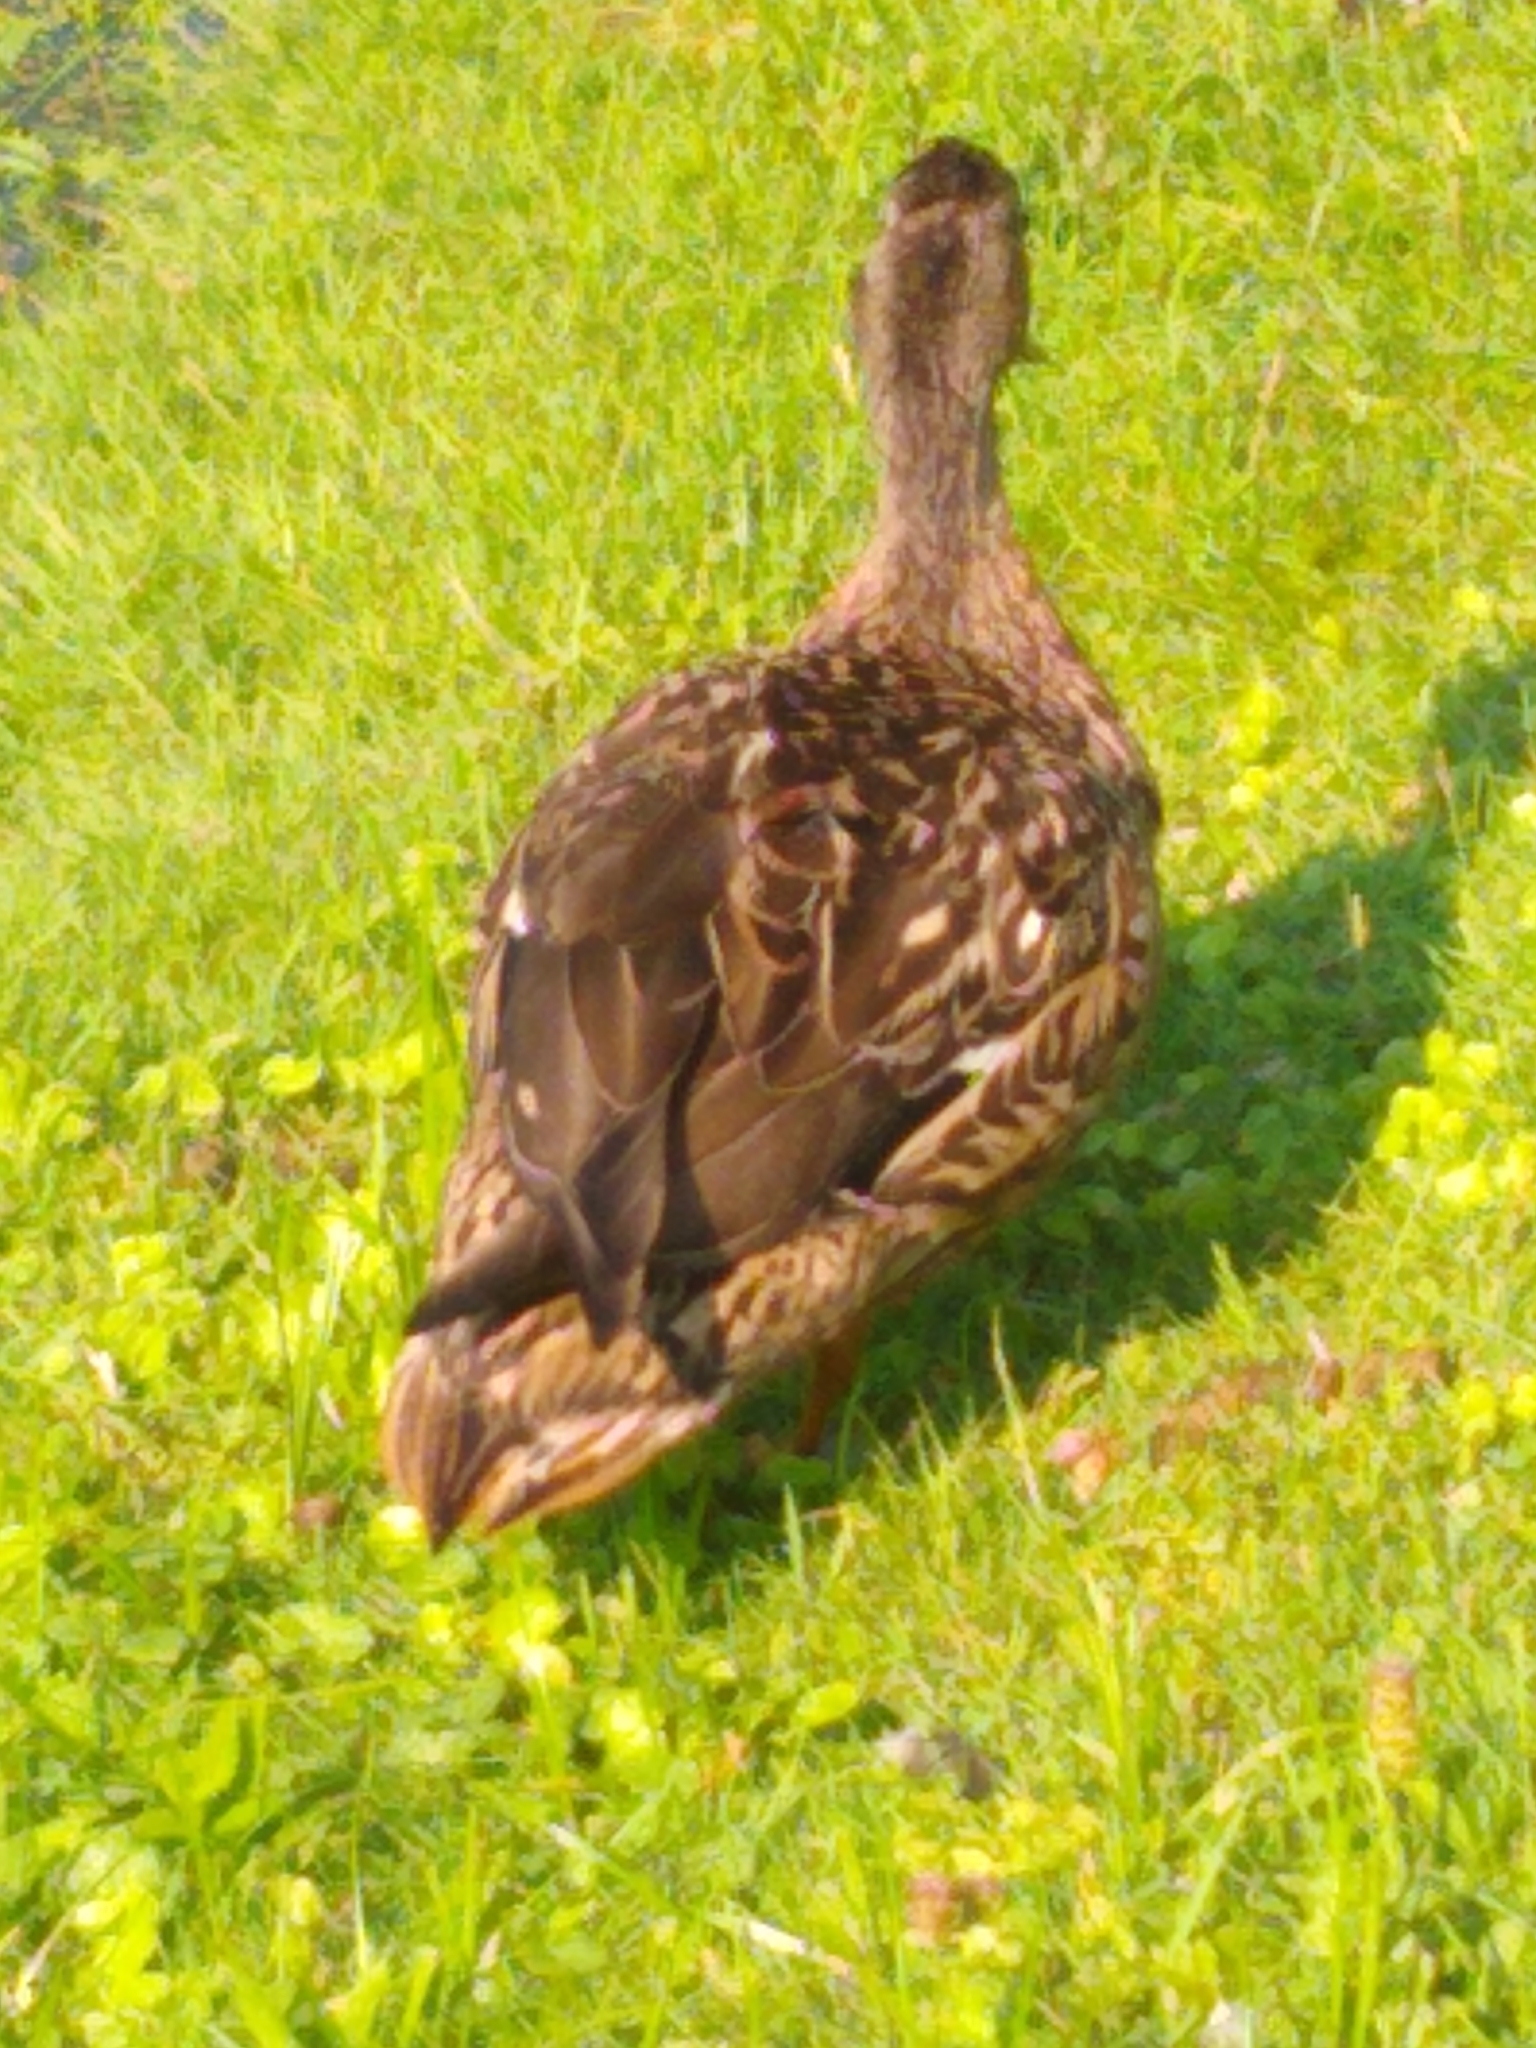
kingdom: Animalia
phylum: Chordata
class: Aves
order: Anseriformes
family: Anatidae
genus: Anas
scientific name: Anas platyrhynchos
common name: Mallard
